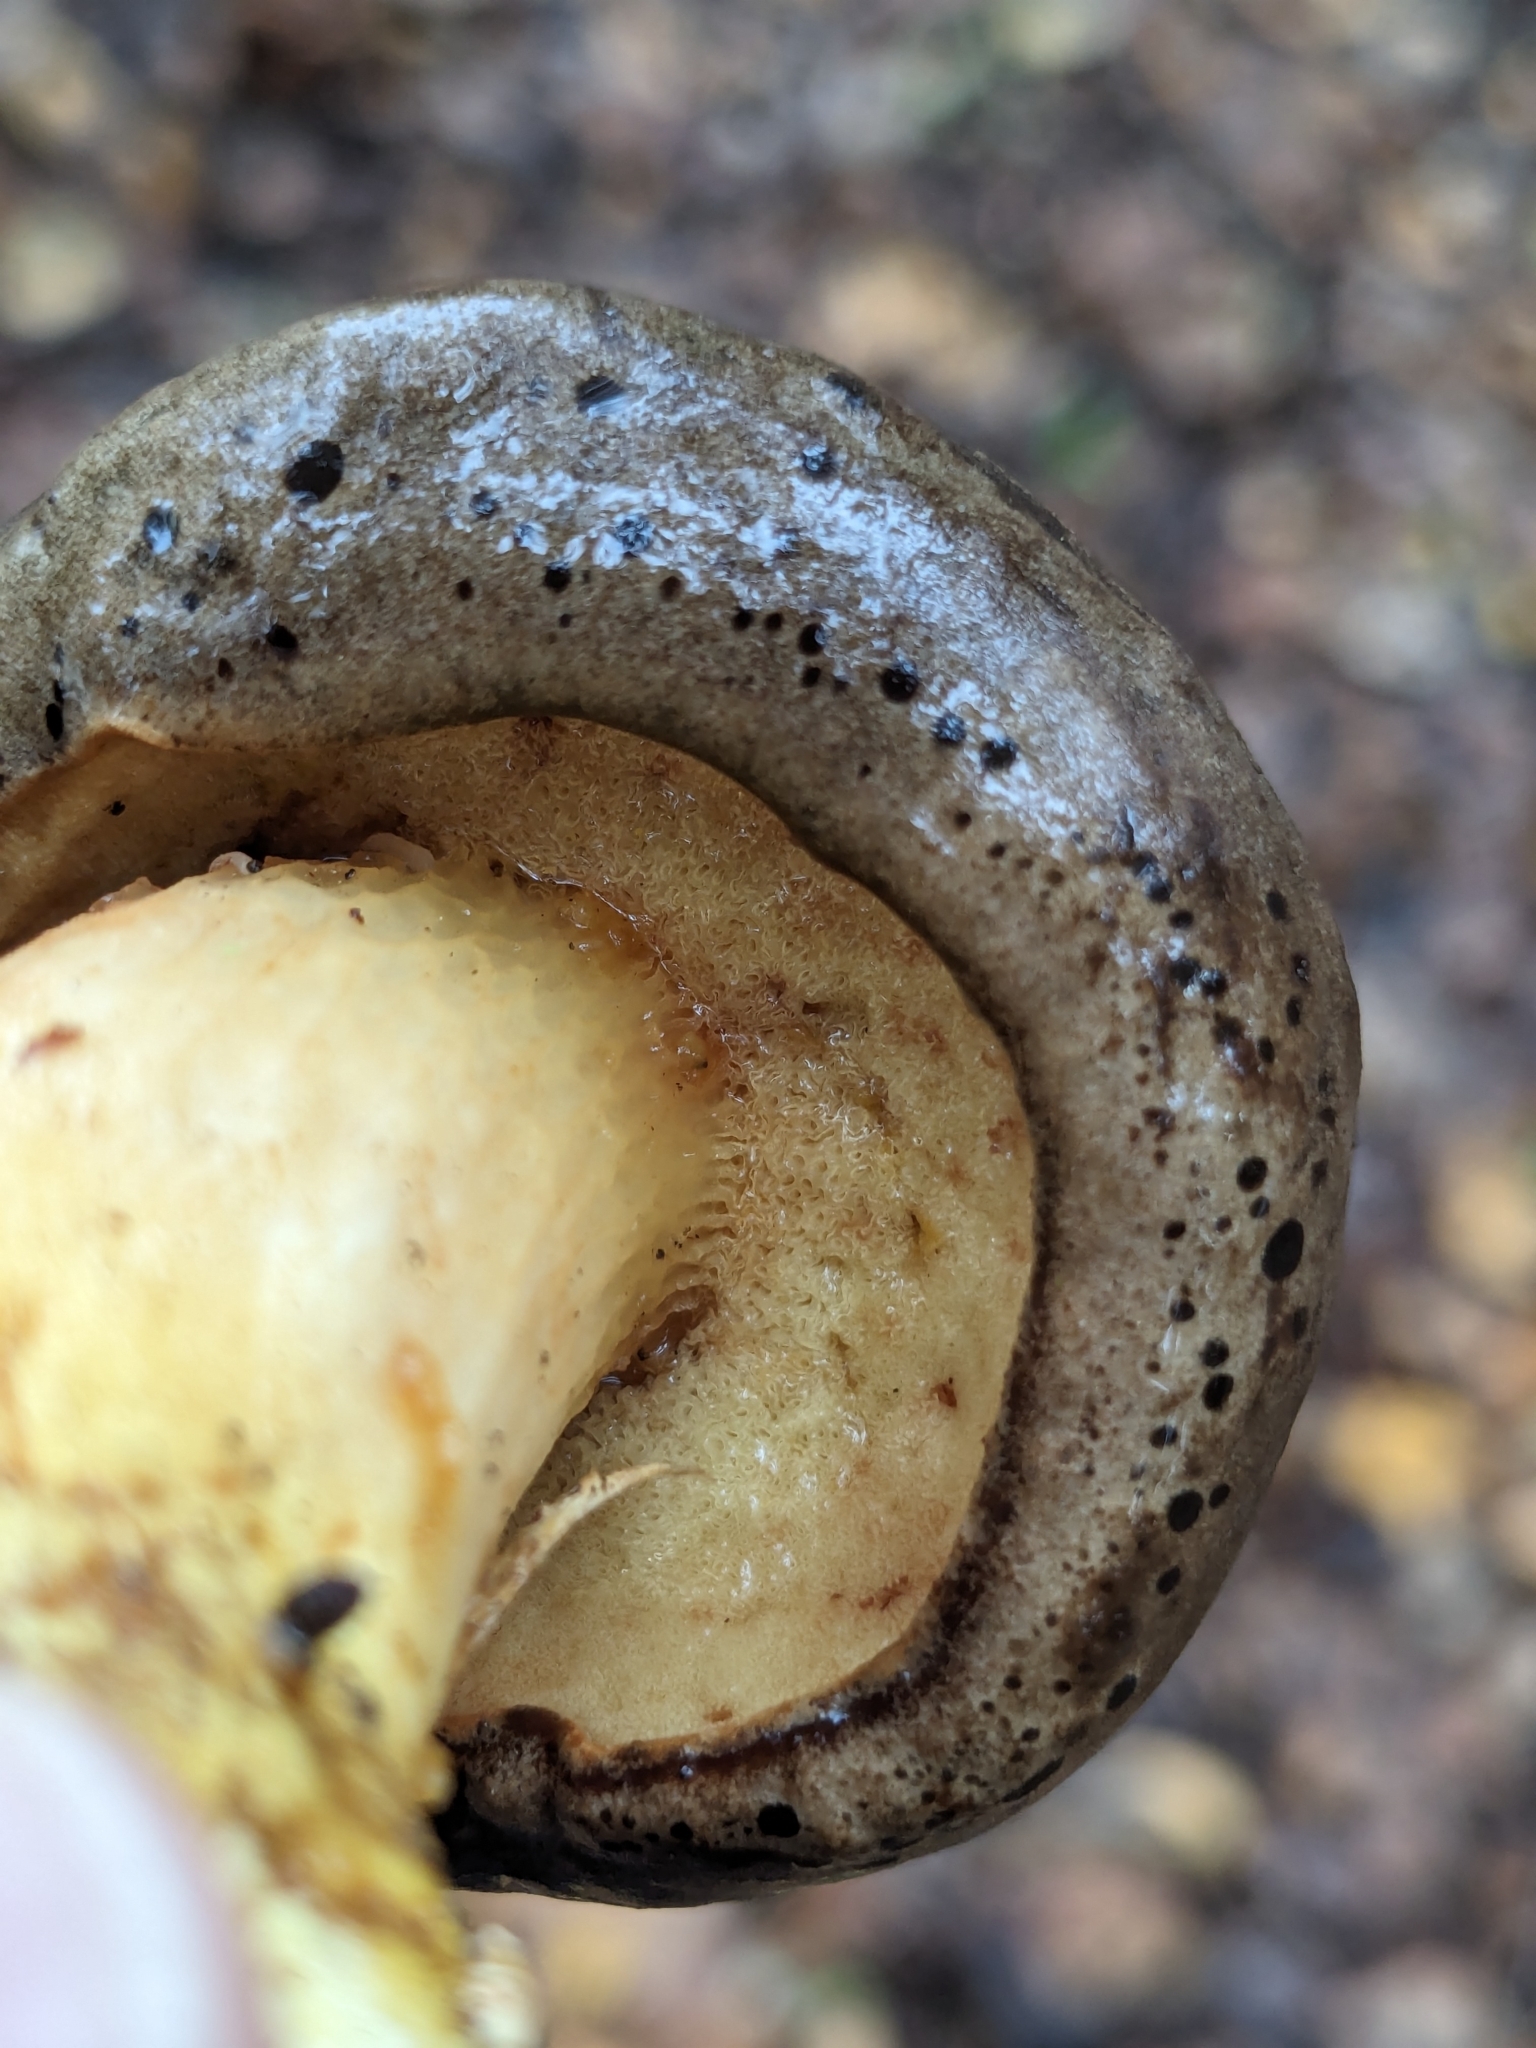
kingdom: Fungi
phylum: Basidiomycota
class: Agaricomycetes
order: Boletales
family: Boletaceae
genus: Xerocomus
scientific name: Xerocomus subtomentosus
